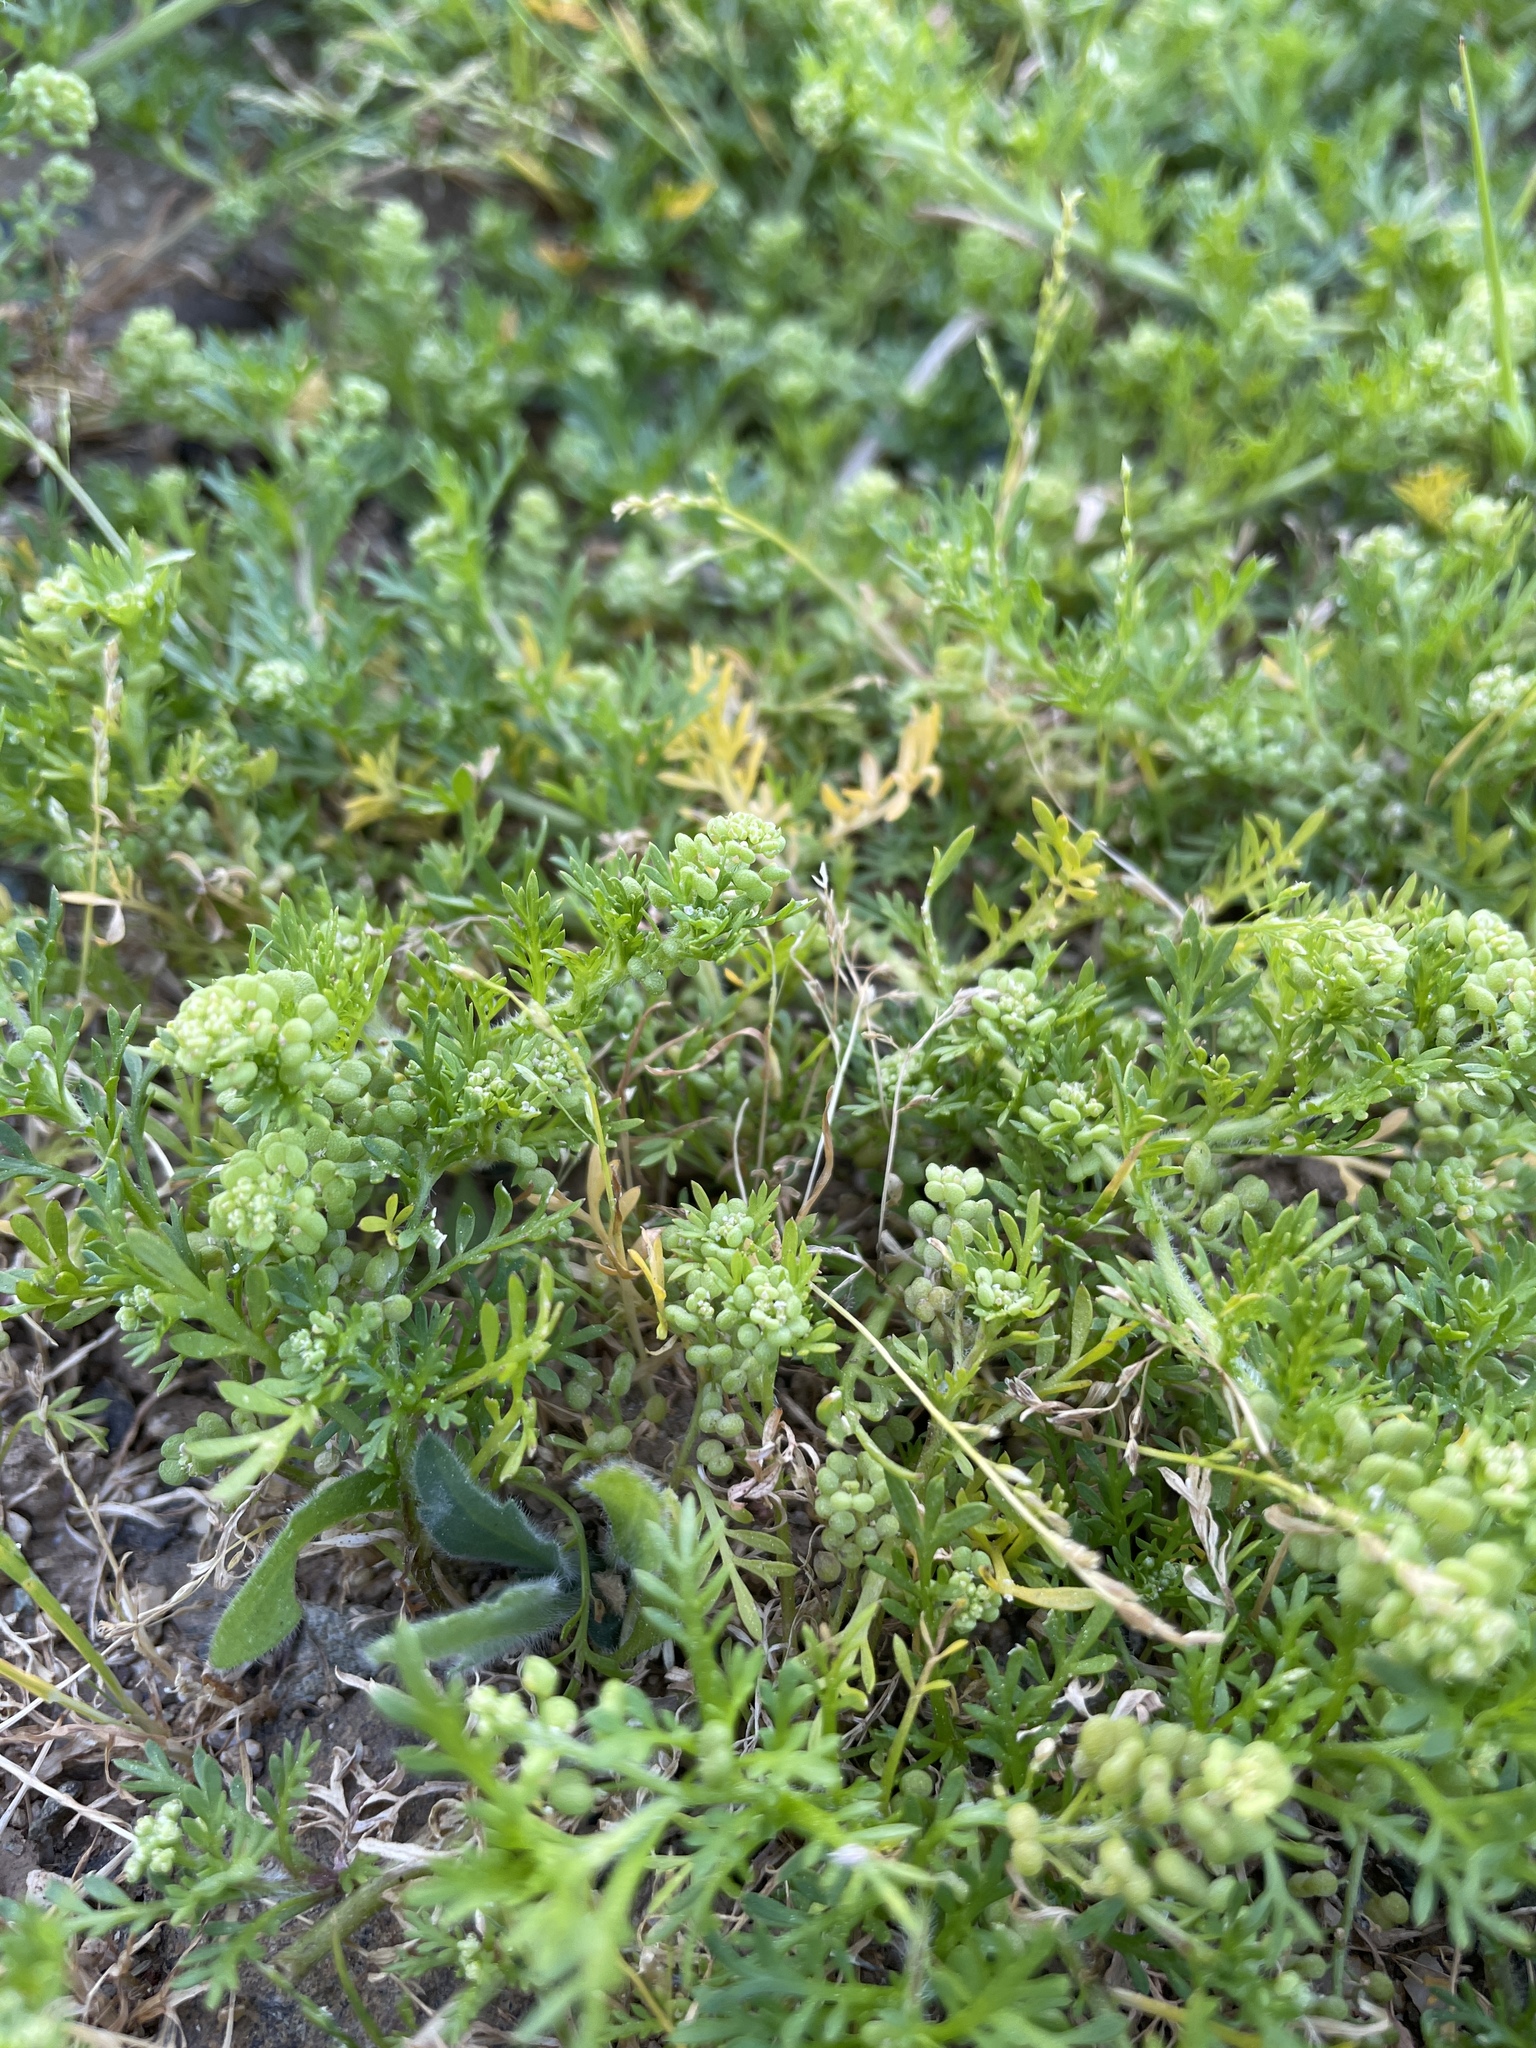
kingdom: Plantae
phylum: Tracheophyta
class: Magnoliopsida
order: Brassicales
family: Brassicaceae
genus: Lepidium
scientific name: Lepidium didymum
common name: Lesser swinecress
